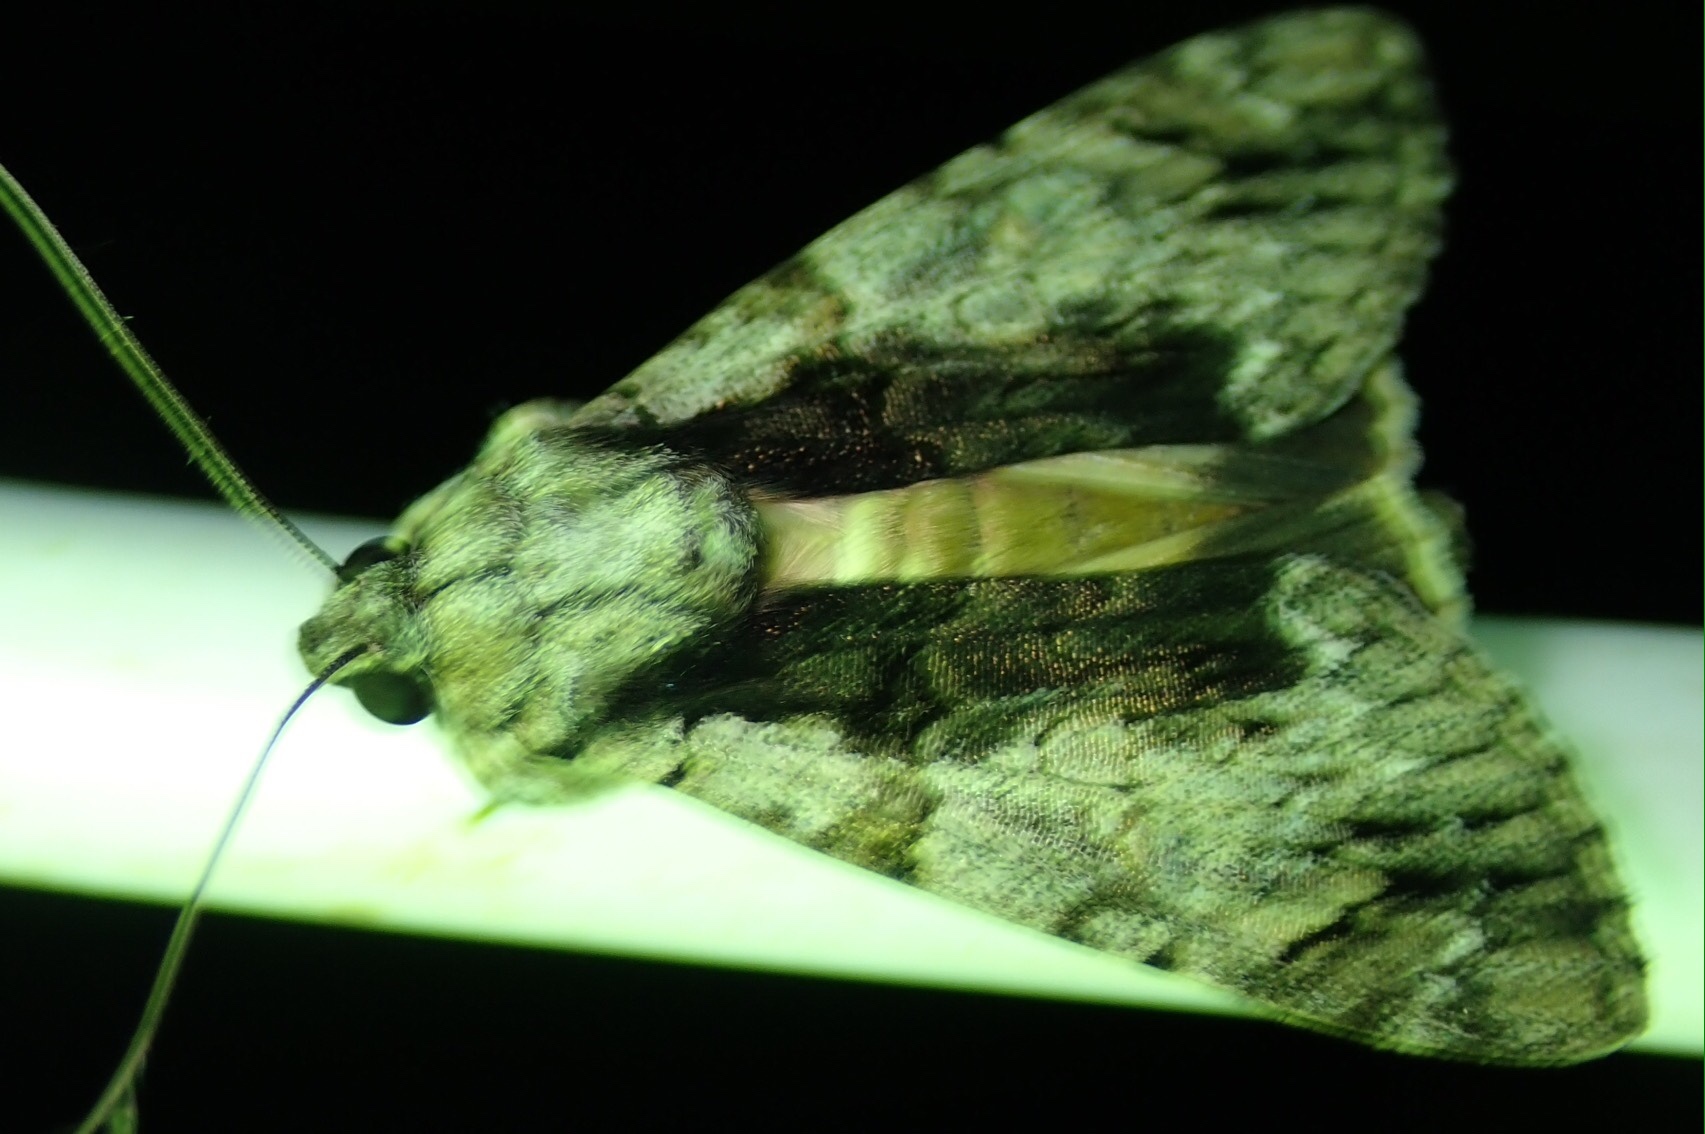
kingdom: Animalia
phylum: Arthropoda
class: Insecta
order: Lepidoptera
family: Erebidae
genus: Ulotrichopus
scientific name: Ulotrichopus tinctipennis
